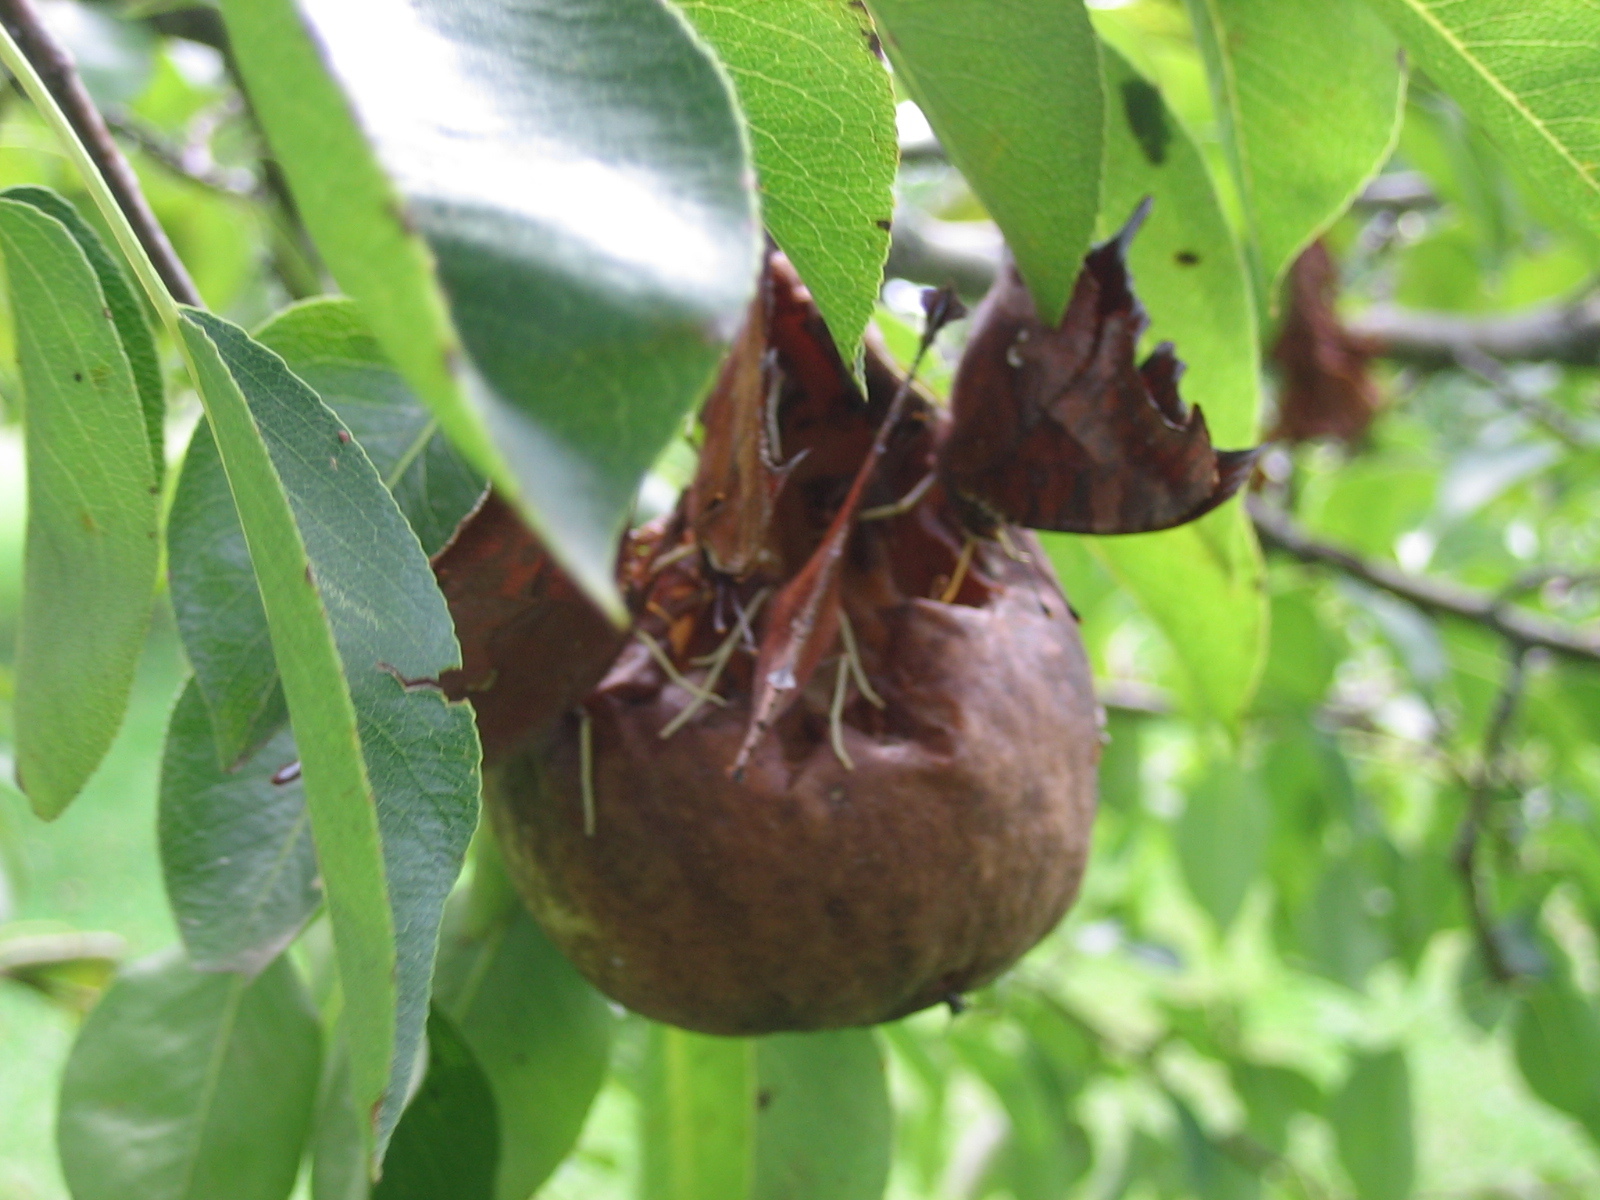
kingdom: Animalia
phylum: Arthropoda
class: Insecta
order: Lepidoptera
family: Nymphalidae
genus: Polygonia
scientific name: Polygonia interrogationis
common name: Question mark
